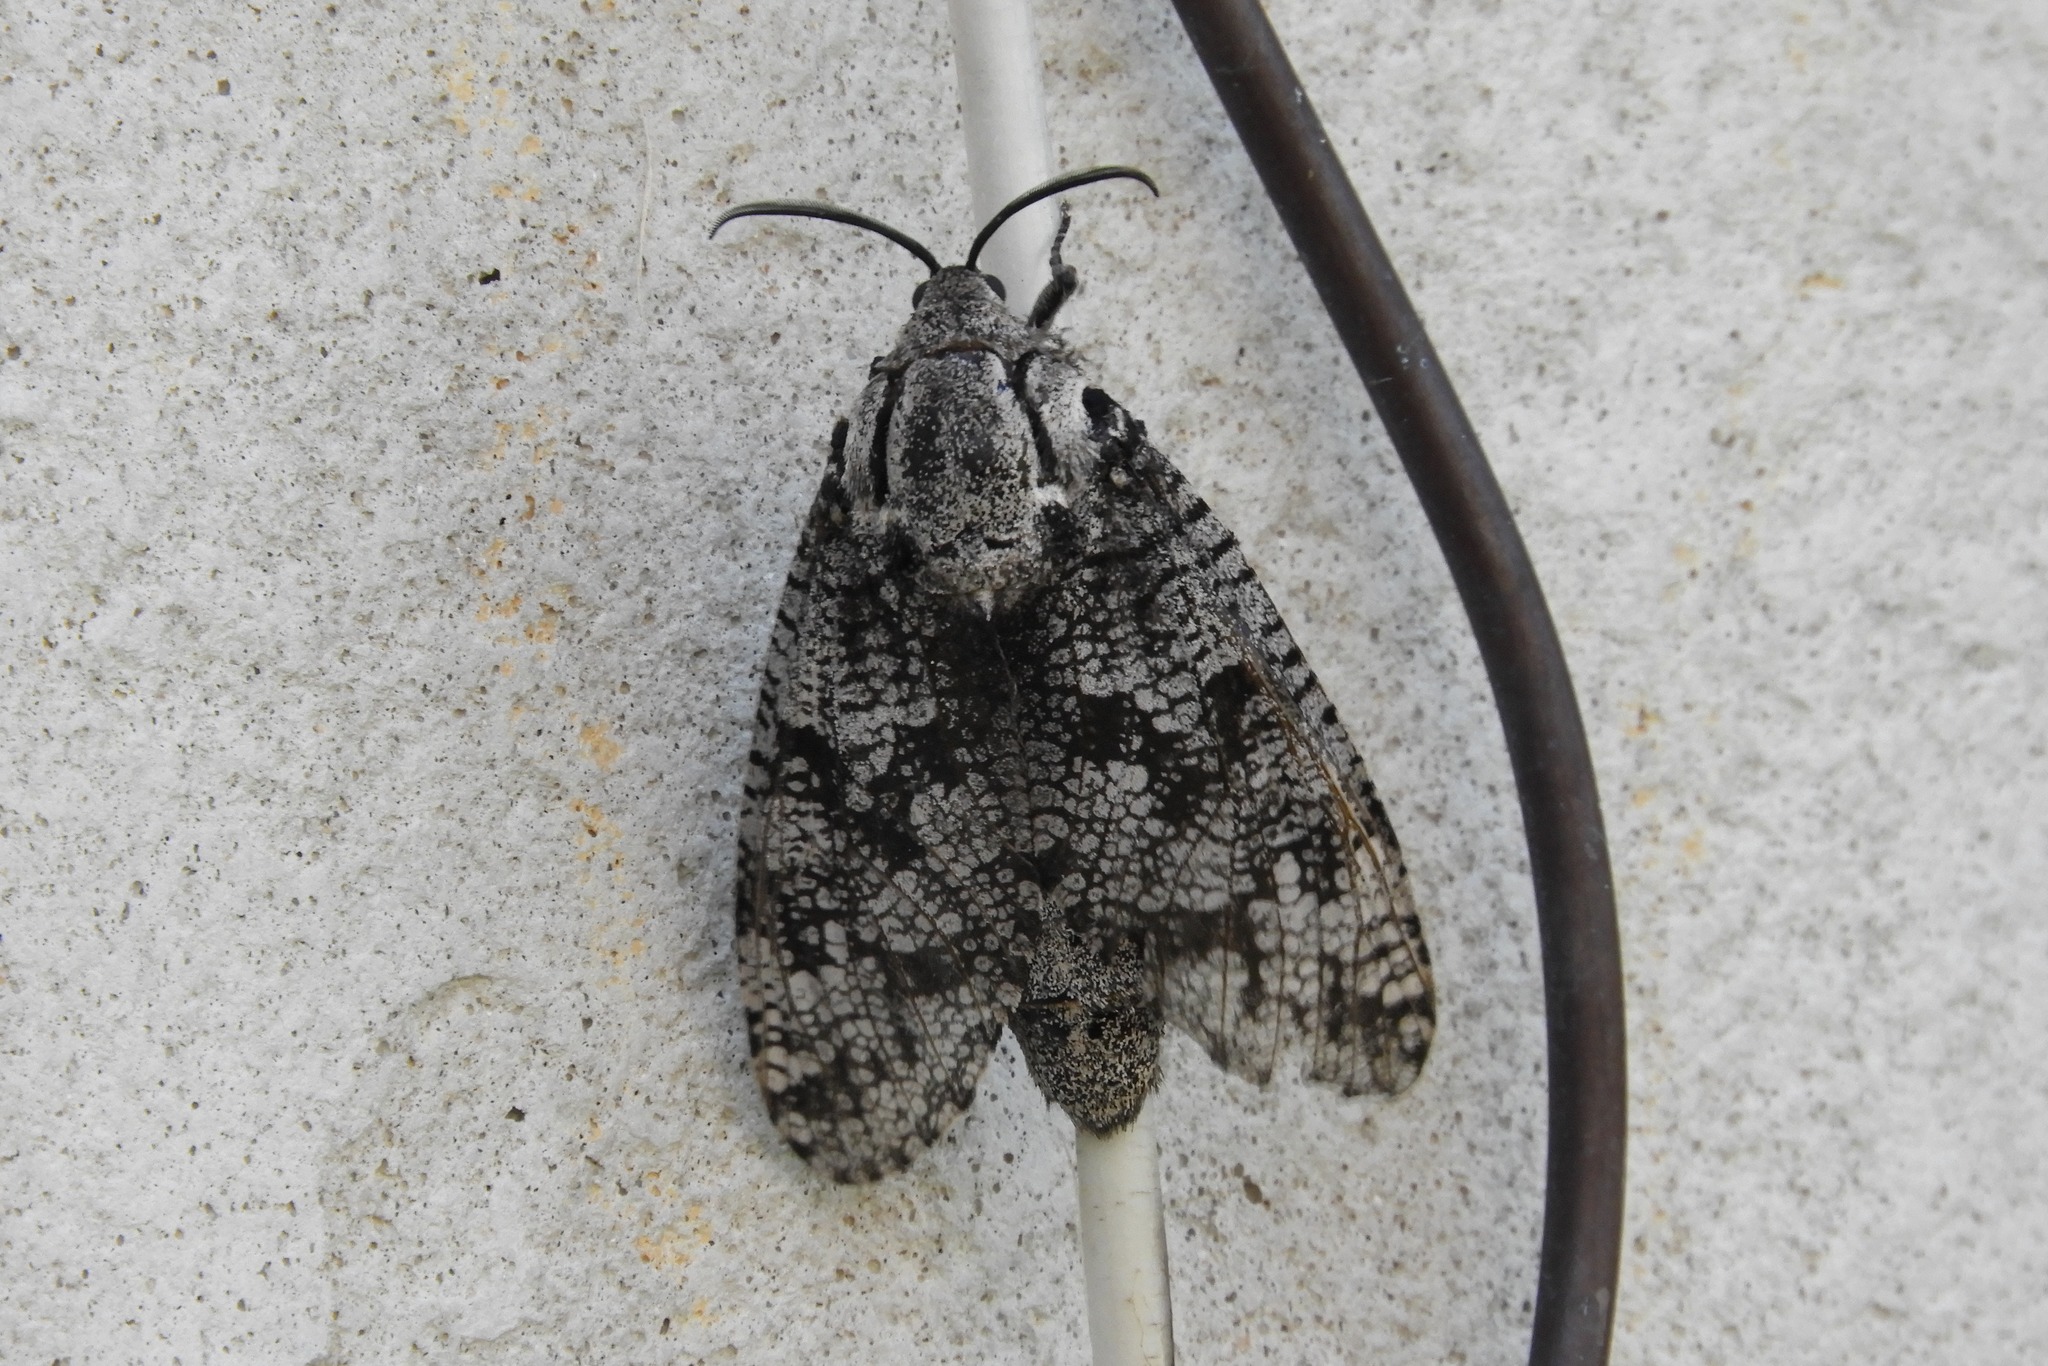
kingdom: Animalia
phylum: Arthropoda
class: Insecta
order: Lepidoptera
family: Cossidae
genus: Prionoxystus
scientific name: Prionoxystus robiniae
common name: Carpenterworm
